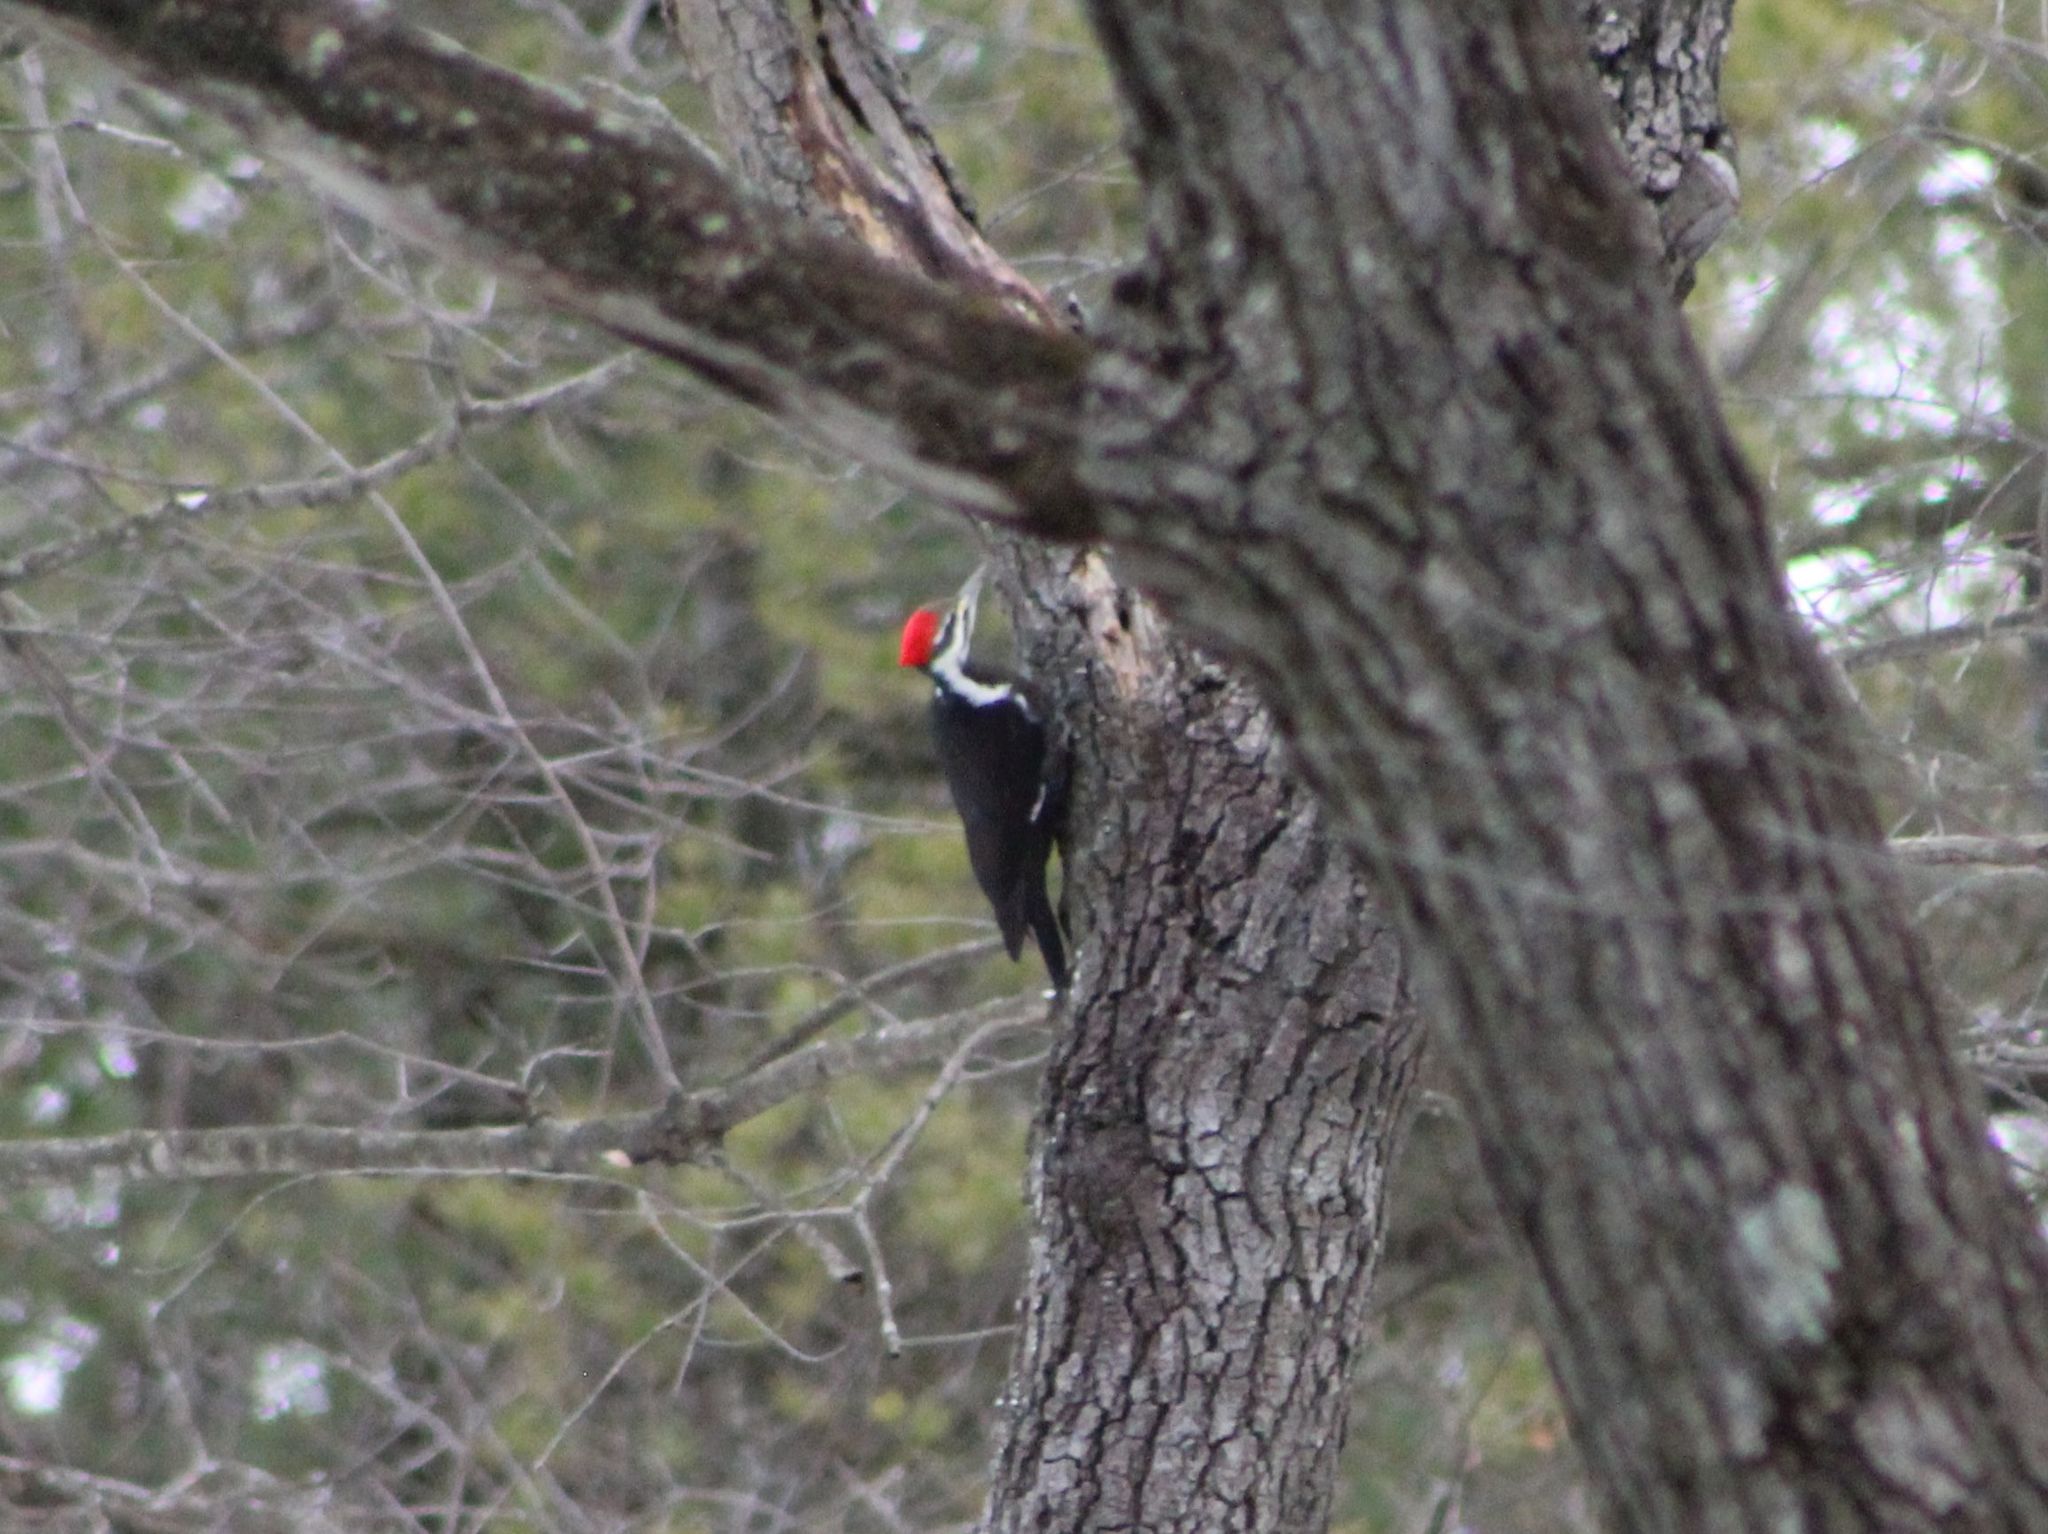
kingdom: Animalia
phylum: Chordata
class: Aves
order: Piciformes
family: Picidae
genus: Dryocopus
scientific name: Dryocopus pileatus
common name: Pileated woodpecker
